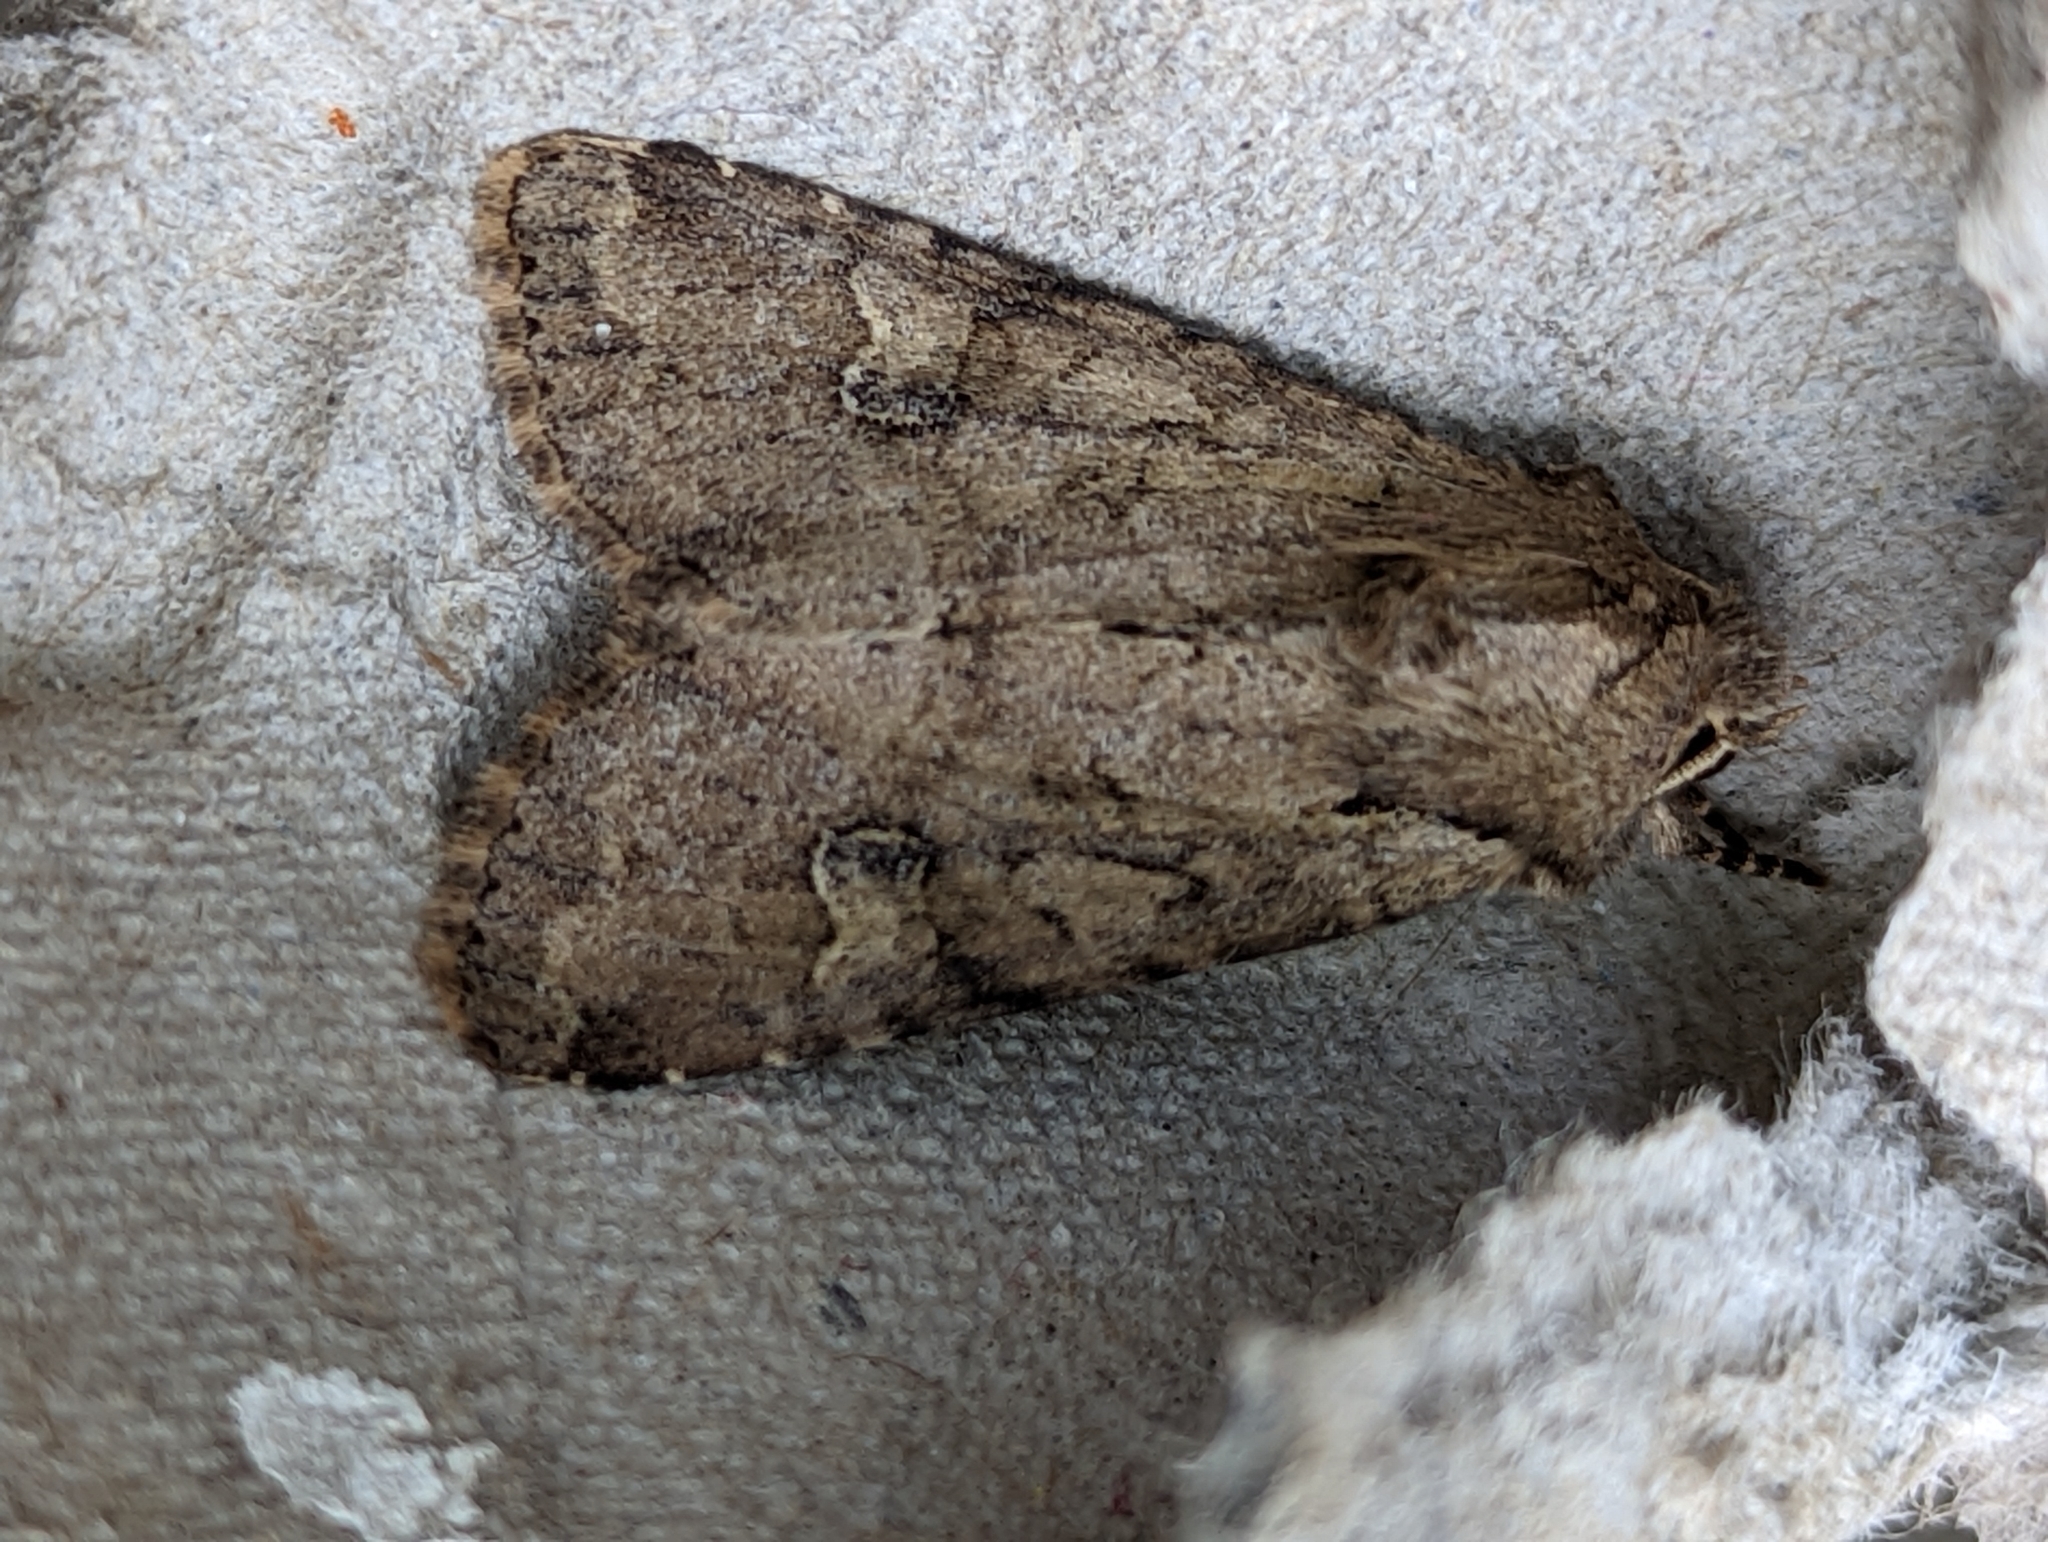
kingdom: Animalia
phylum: Arthropoda
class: Insecta
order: Lepidoptera
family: Noctuidae
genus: Apamea
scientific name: Apamea sordens
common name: Rustic shoulder-knot
